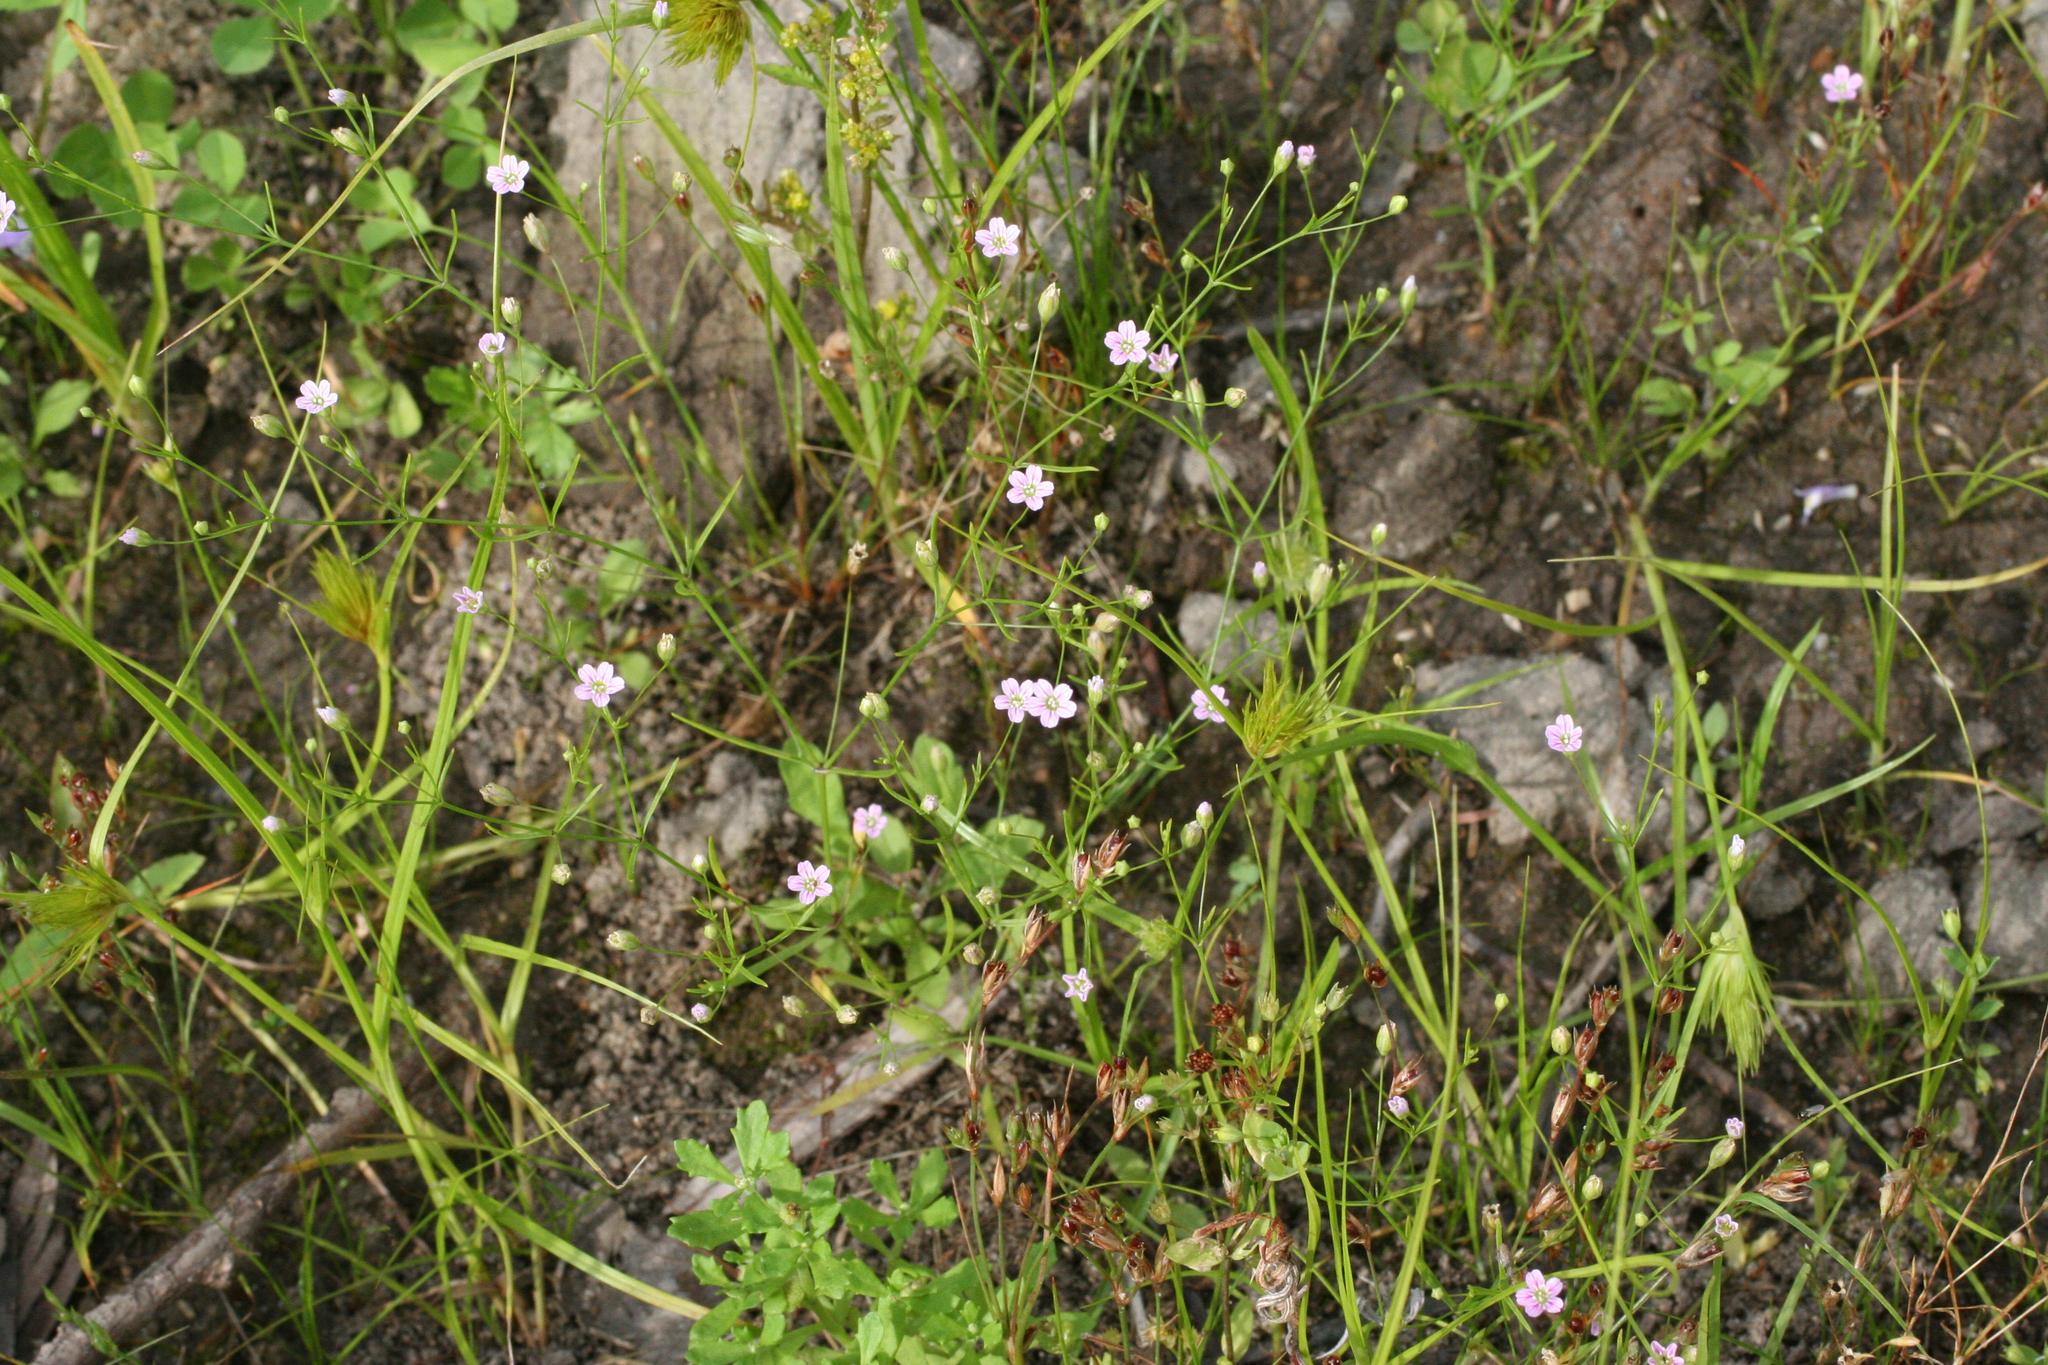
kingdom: Plantae
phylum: Tracheophyta
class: Magnoliopsida
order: Caryophyllales
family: Caryophyllaceae
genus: Psammophiliella
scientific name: Psammophiliella muralis
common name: Cushion baby's-breath
